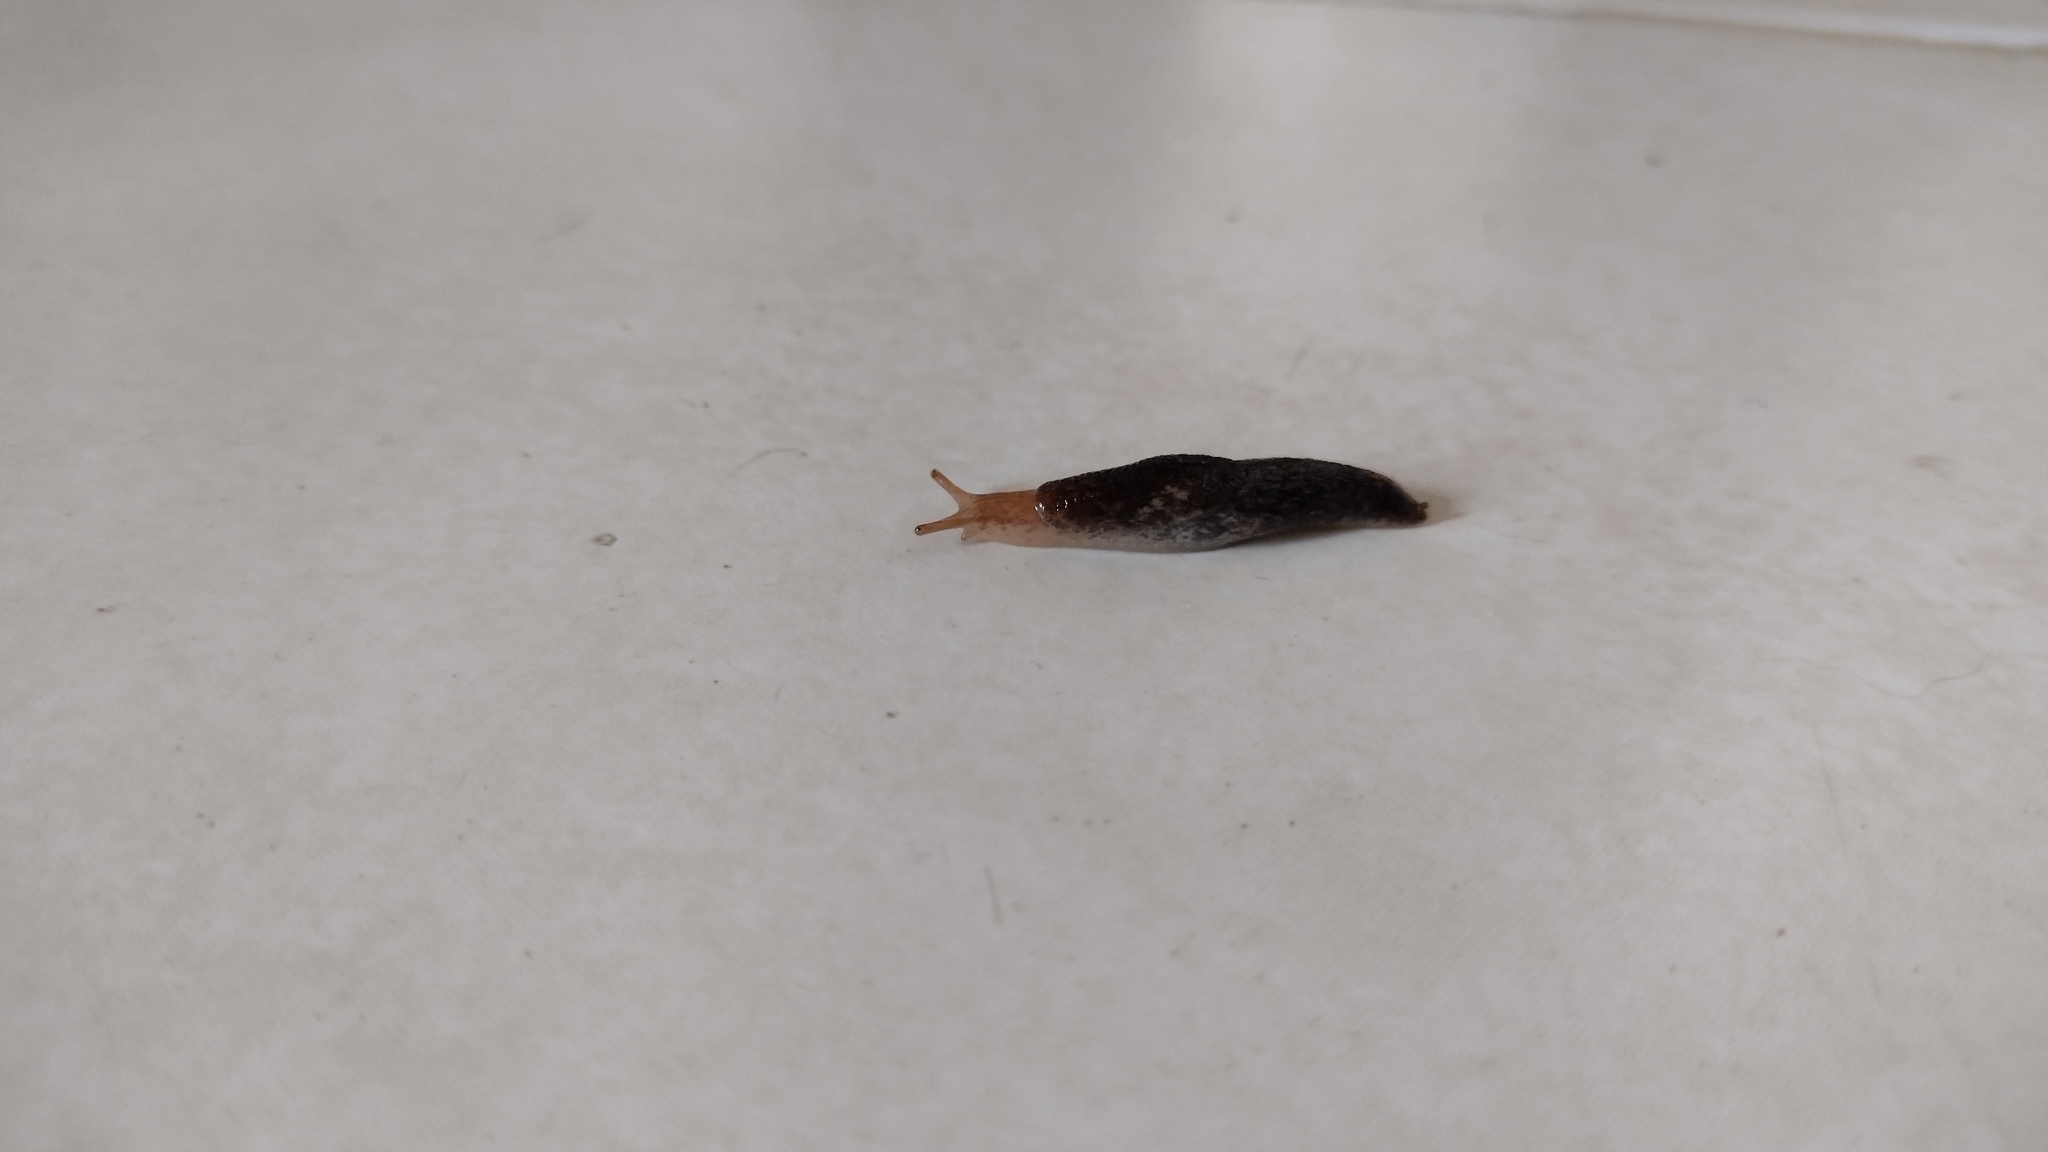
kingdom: Animalia
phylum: Mollusca
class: Gastropoda
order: Stylommatophora
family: Agriolimacidae
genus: Deroceras
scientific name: Deroceras reticulatum
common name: Gray field slug
